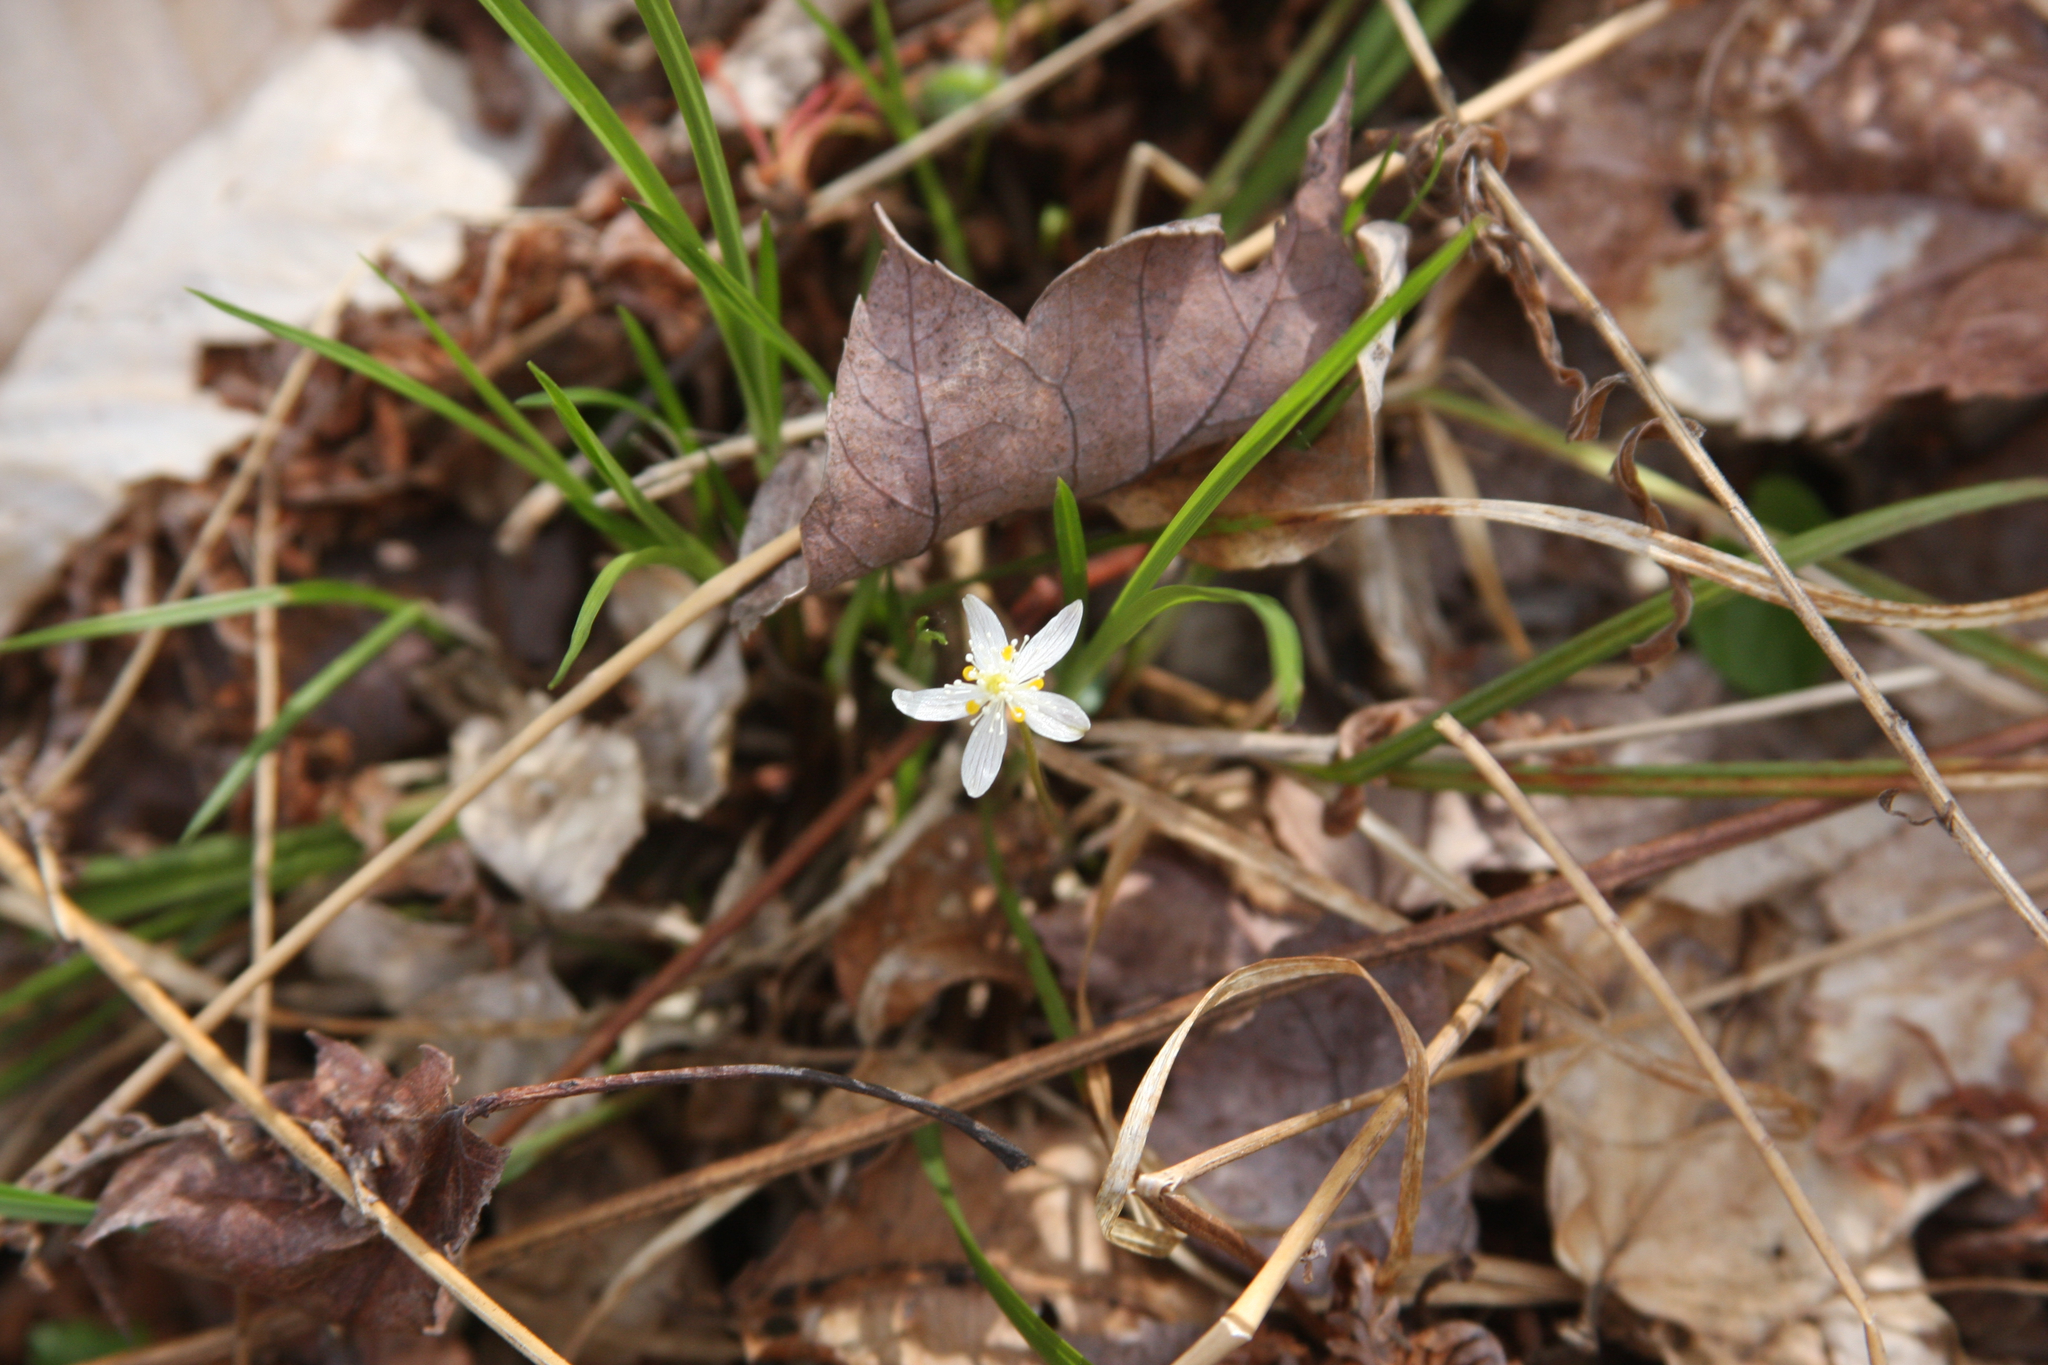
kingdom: Plantae
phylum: Tracheophyta
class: Magnoliopsida
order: Ranunculales
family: Ranunculaceae
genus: Coptis
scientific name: Coptis trifolia
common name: Canker-root
